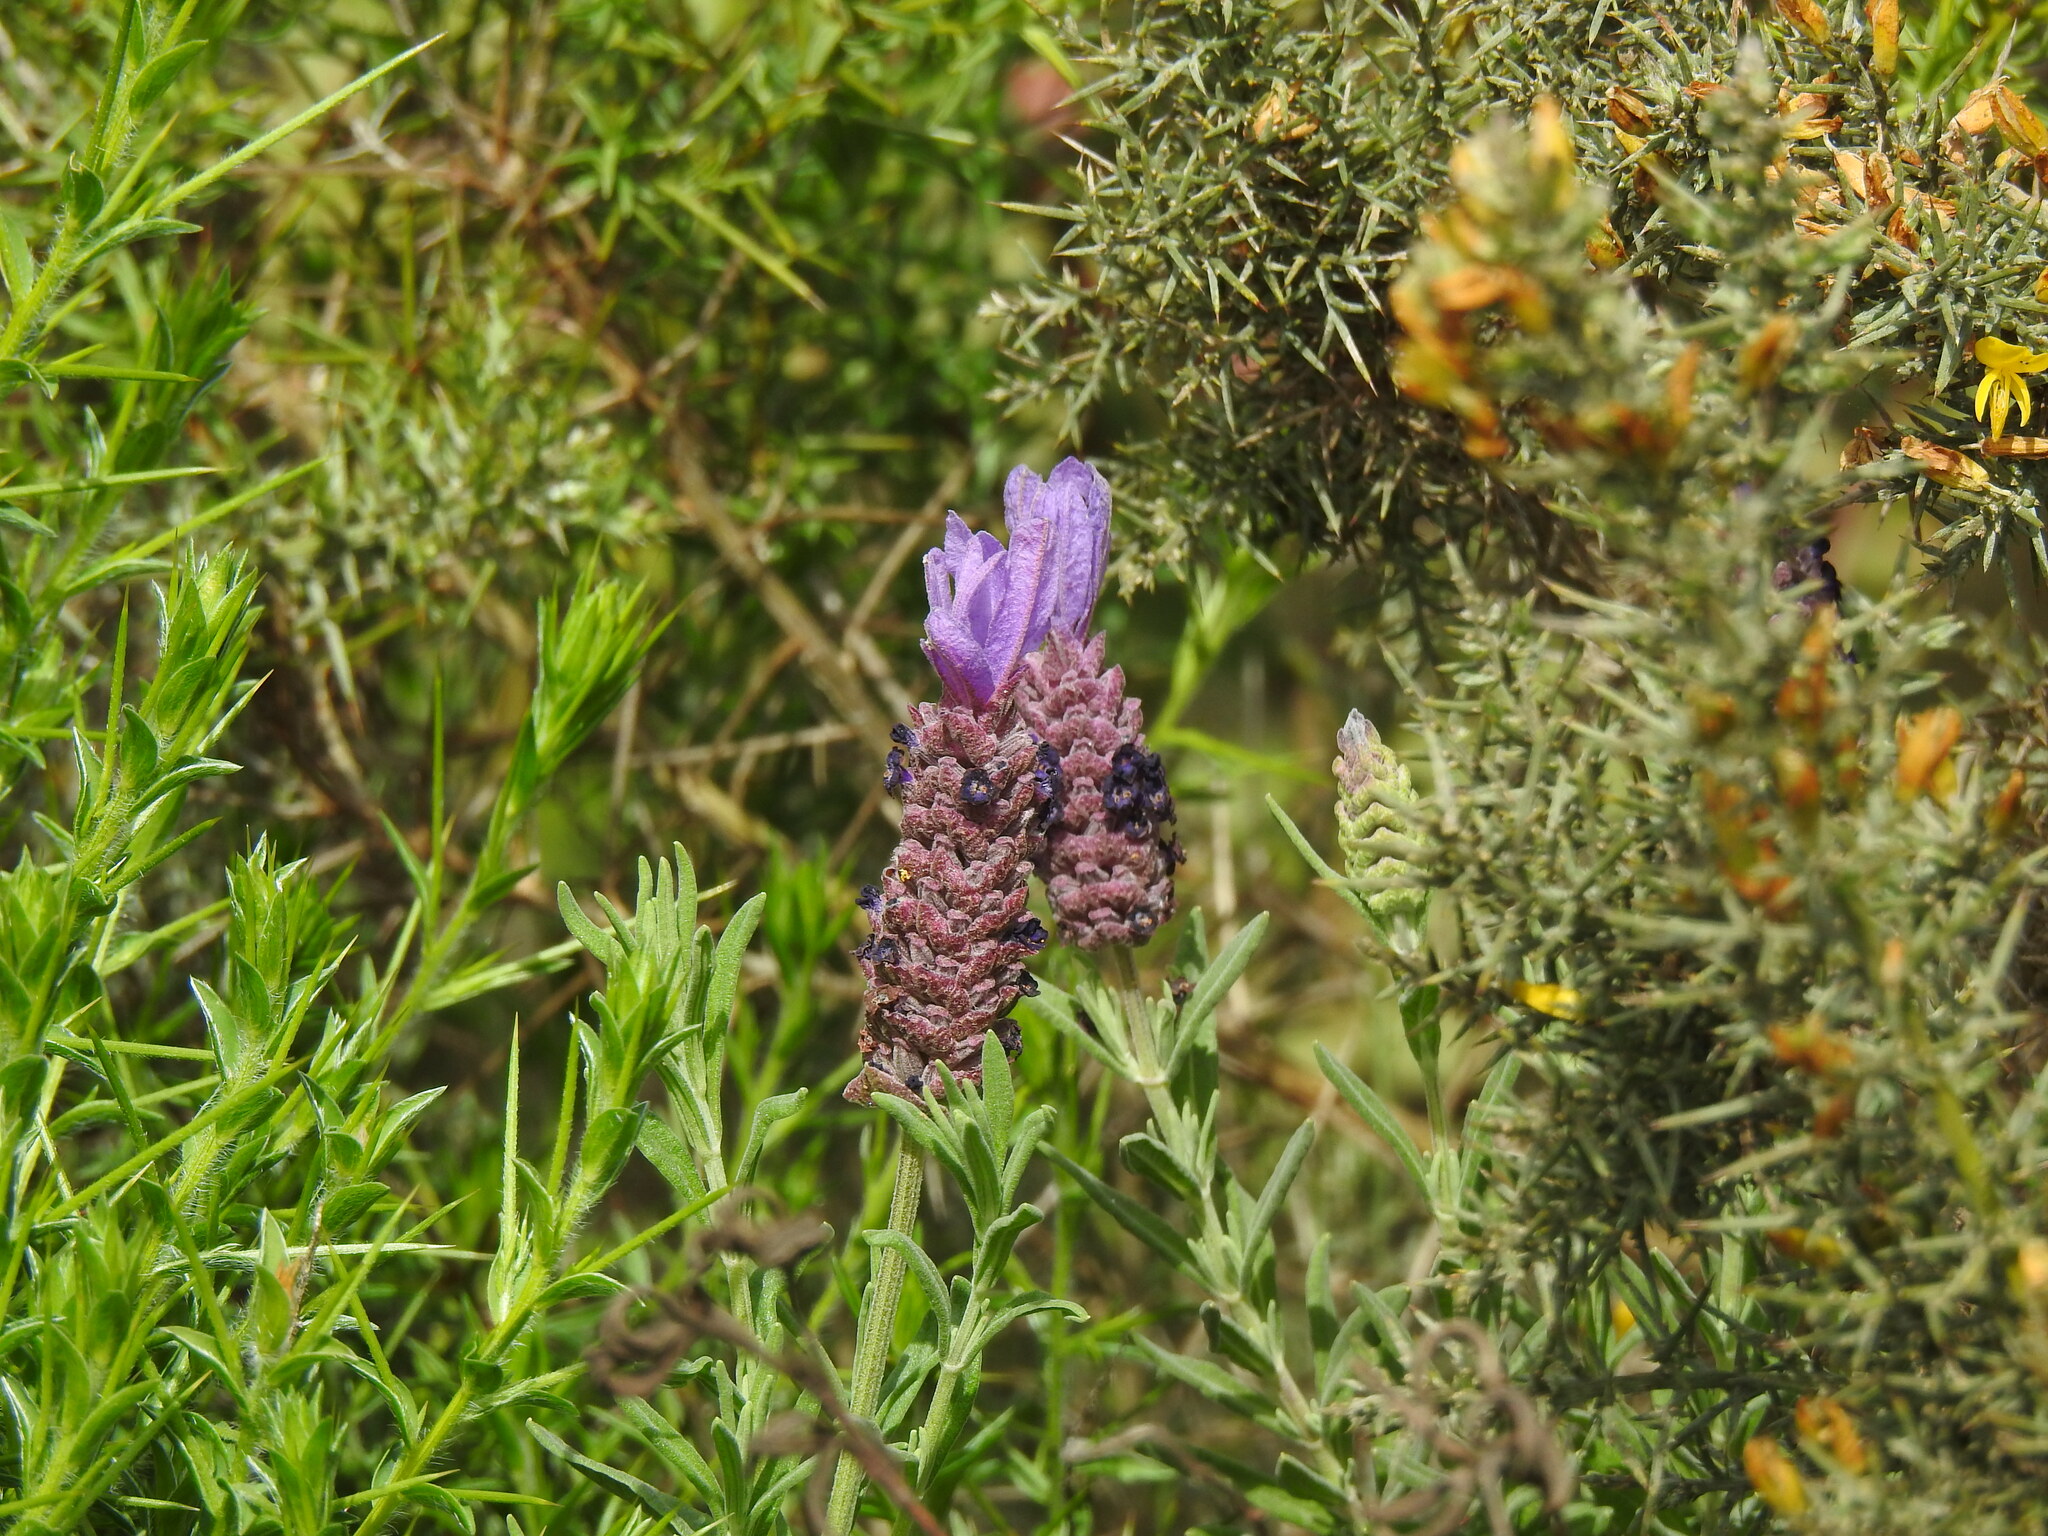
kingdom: Plantae
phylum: Tracheophyta
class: Magnoliopsida
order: Lamiales
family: Lamiaceae
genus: Lavandula
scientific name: Lavandula stoechas
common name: French lavender
